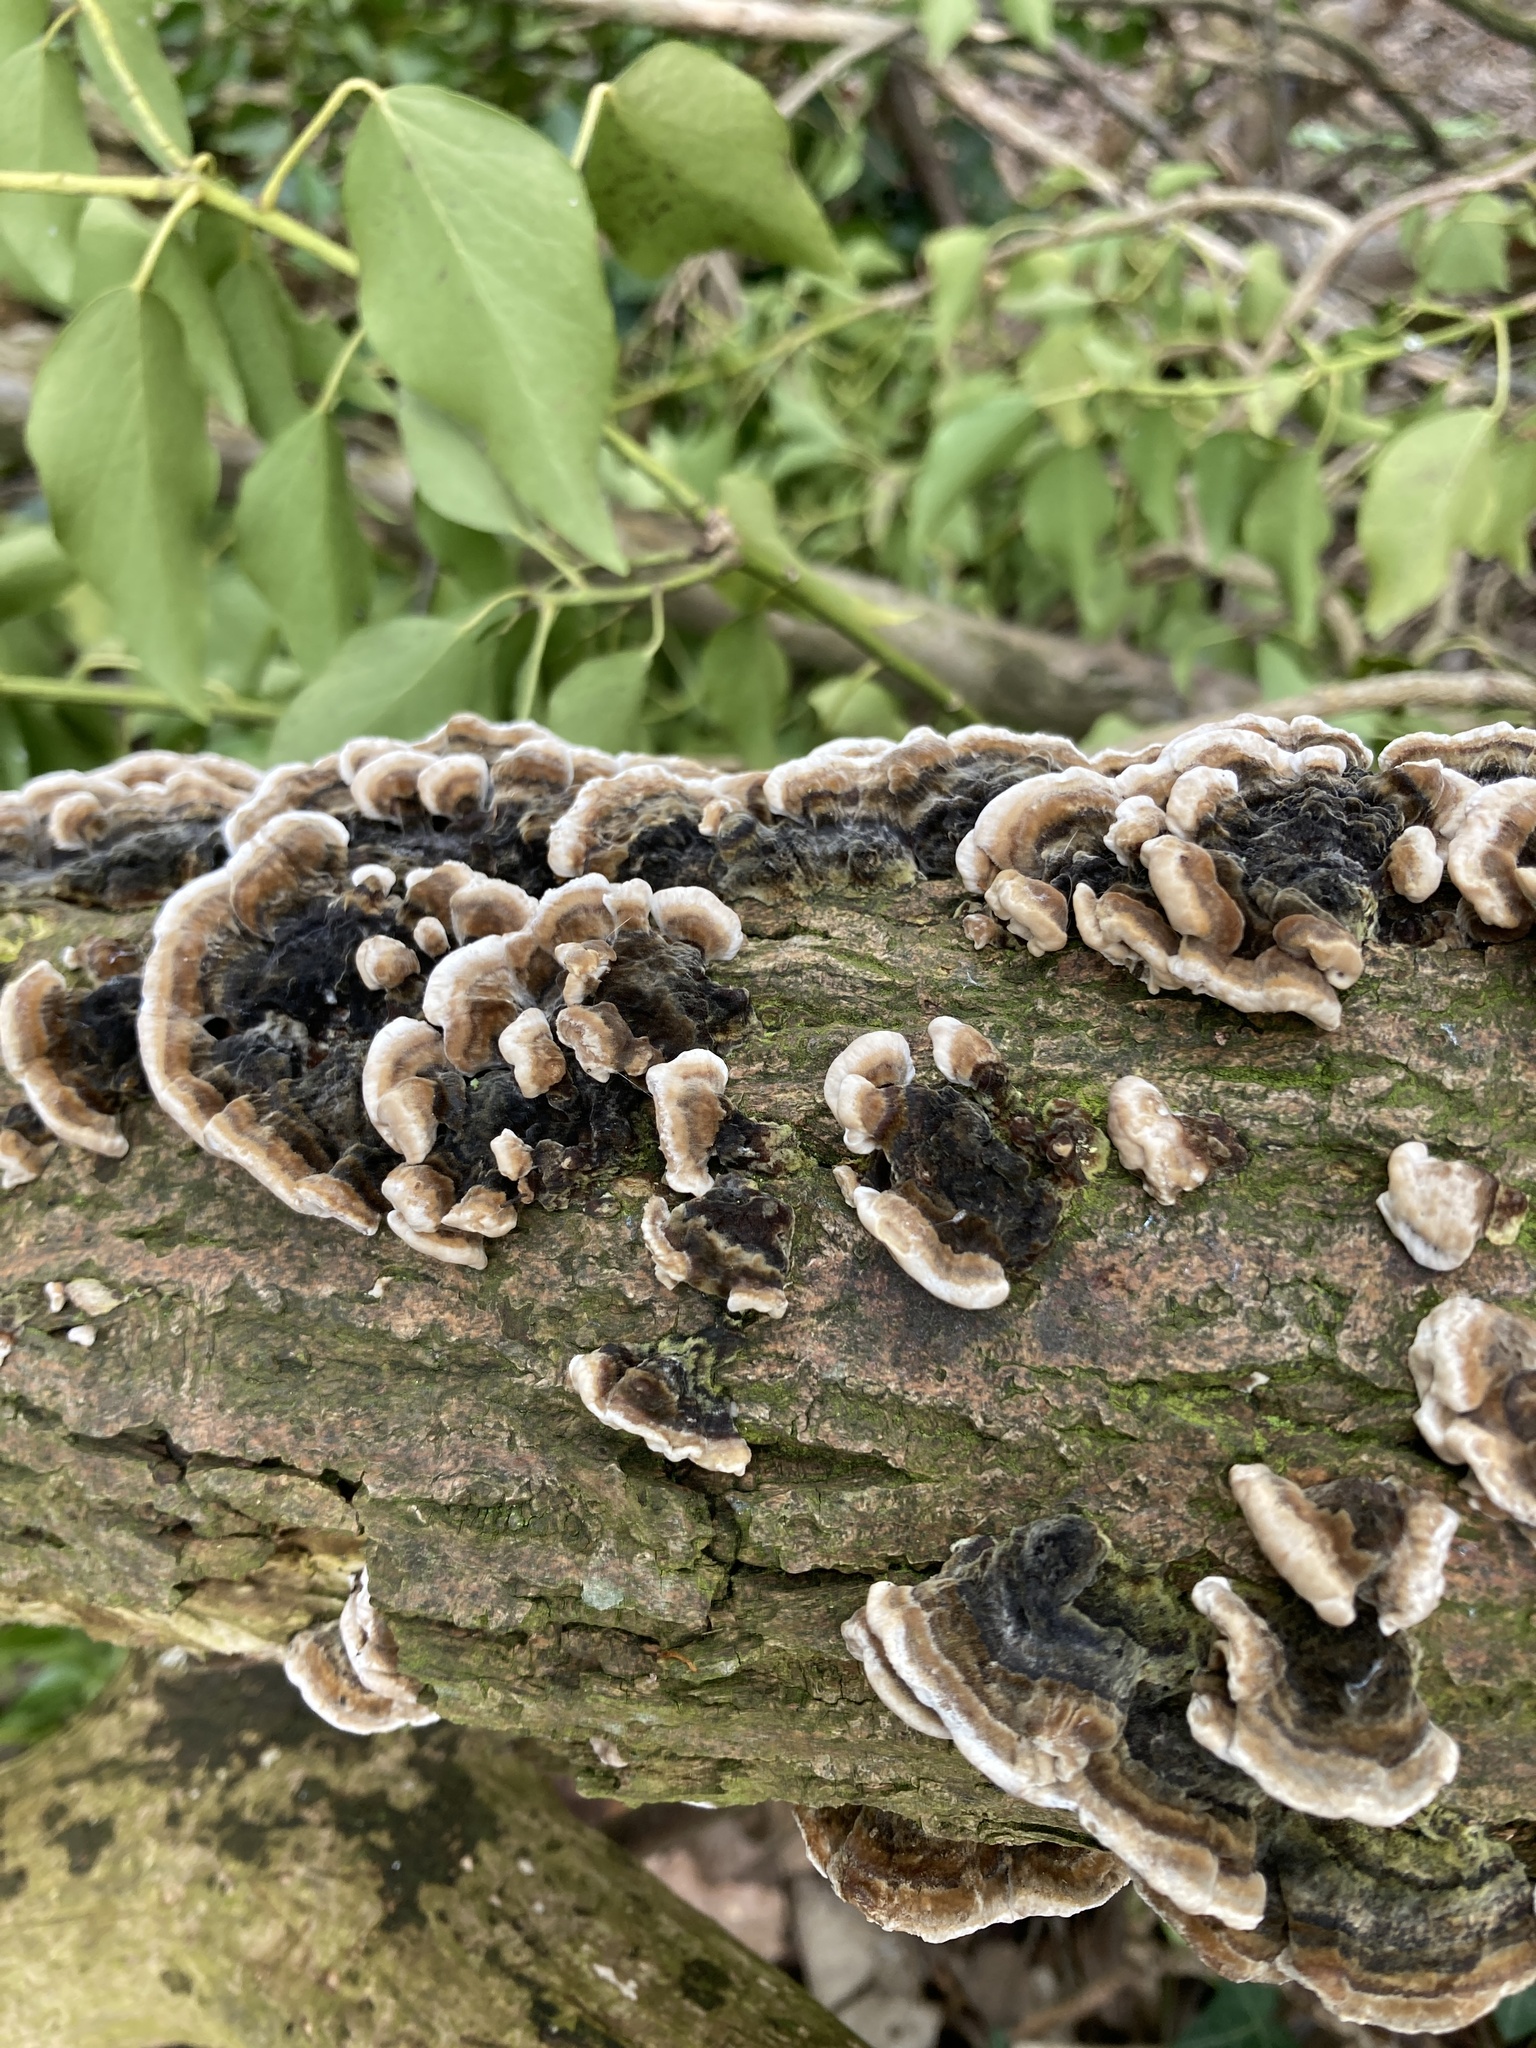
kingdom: Fungi
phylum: Basidiomycota
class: Agaricomycetes
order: Polyporales
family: Polyporaceae
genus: Trametes
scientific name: Trametes versicolor
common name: Turkeytail
